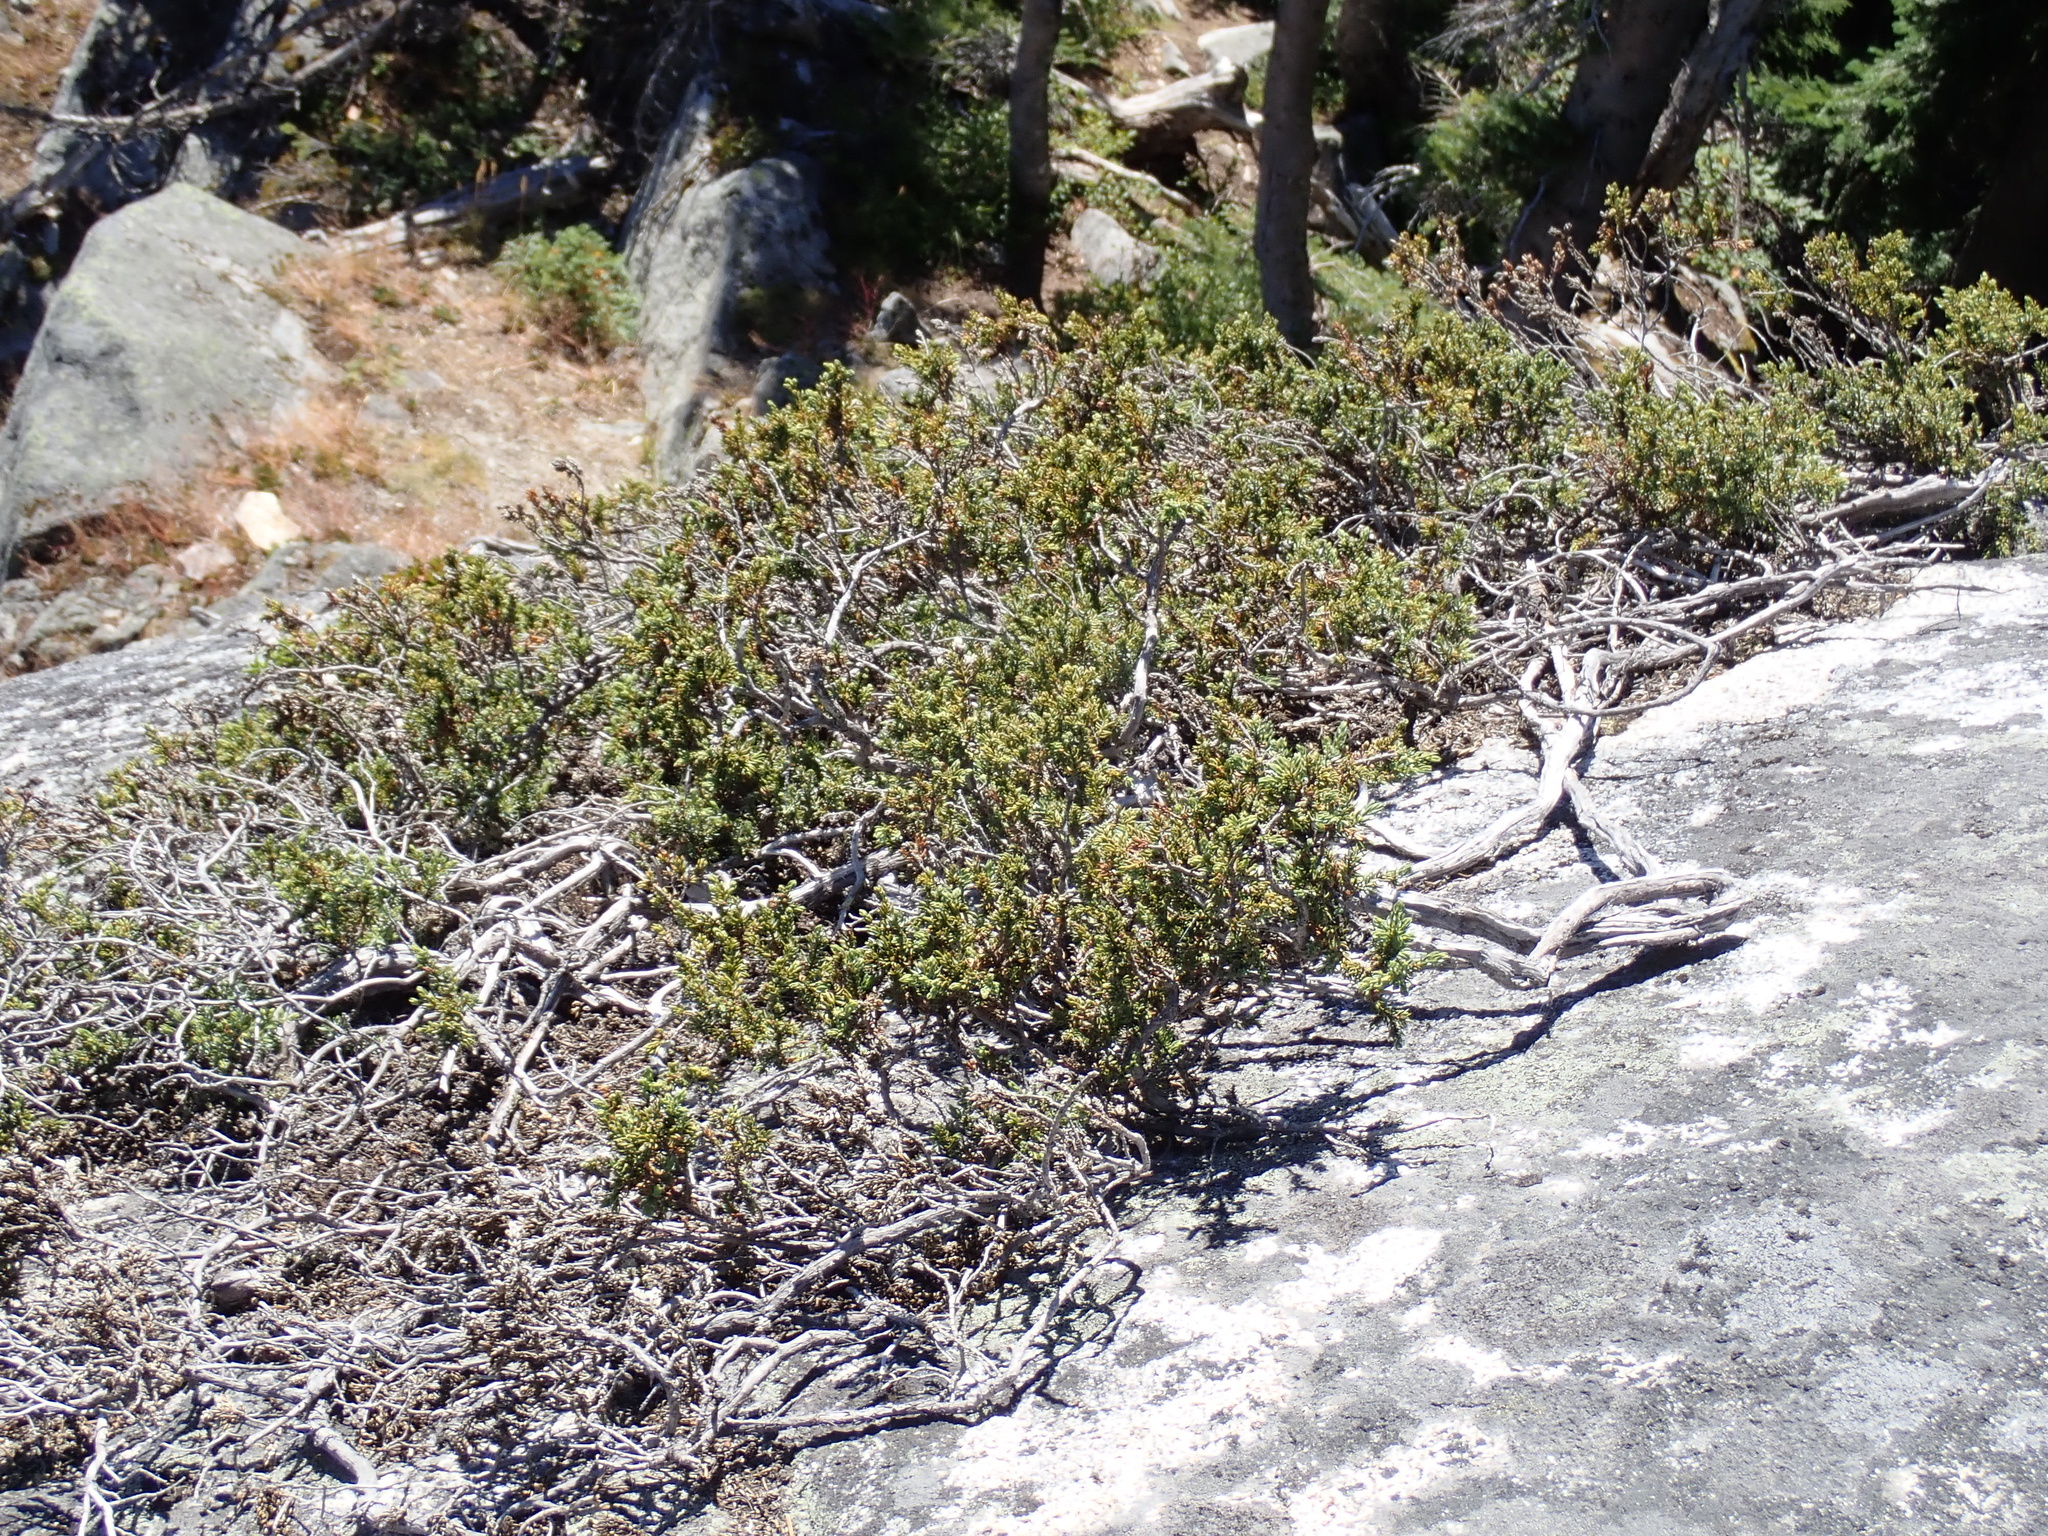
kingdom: Plantae
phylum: Tracheophyta
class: Pinopsida
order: Pinales
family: Cupressaceae
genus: Juniperus
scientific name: Juniperus communis
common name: Common juniper
